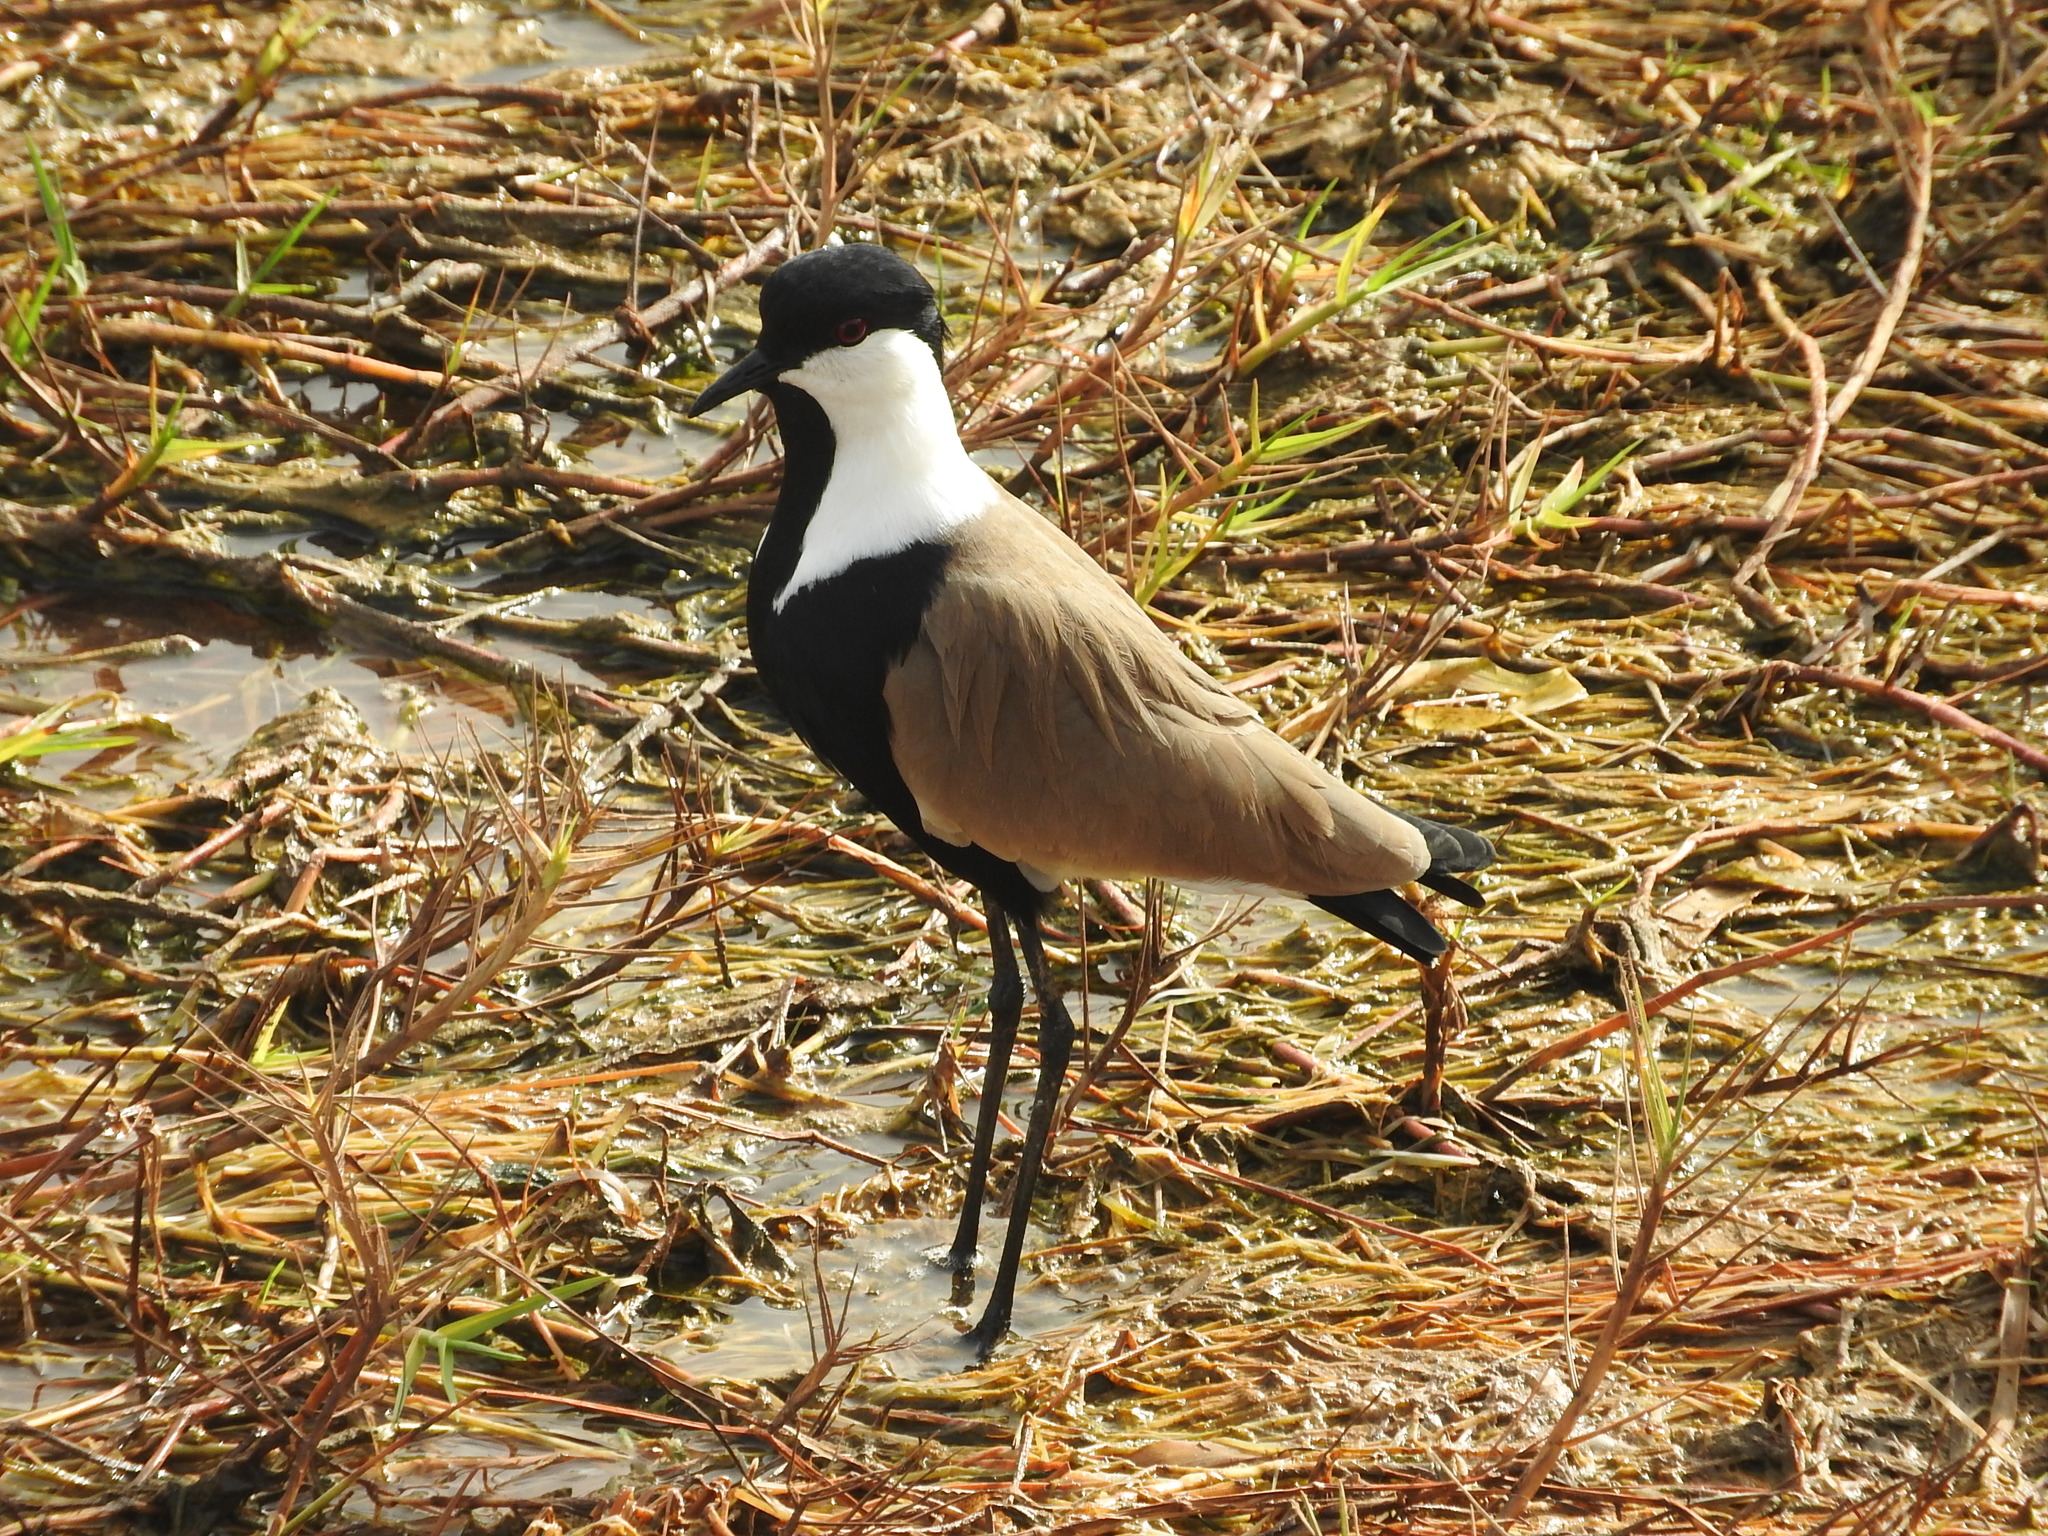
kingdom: Animalia
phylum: Chordata
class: Aves
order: Charadriiformes
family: Charadriidae
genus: Vanellus
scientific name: Vanellus spinosus
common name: Spur-winged lapwing
